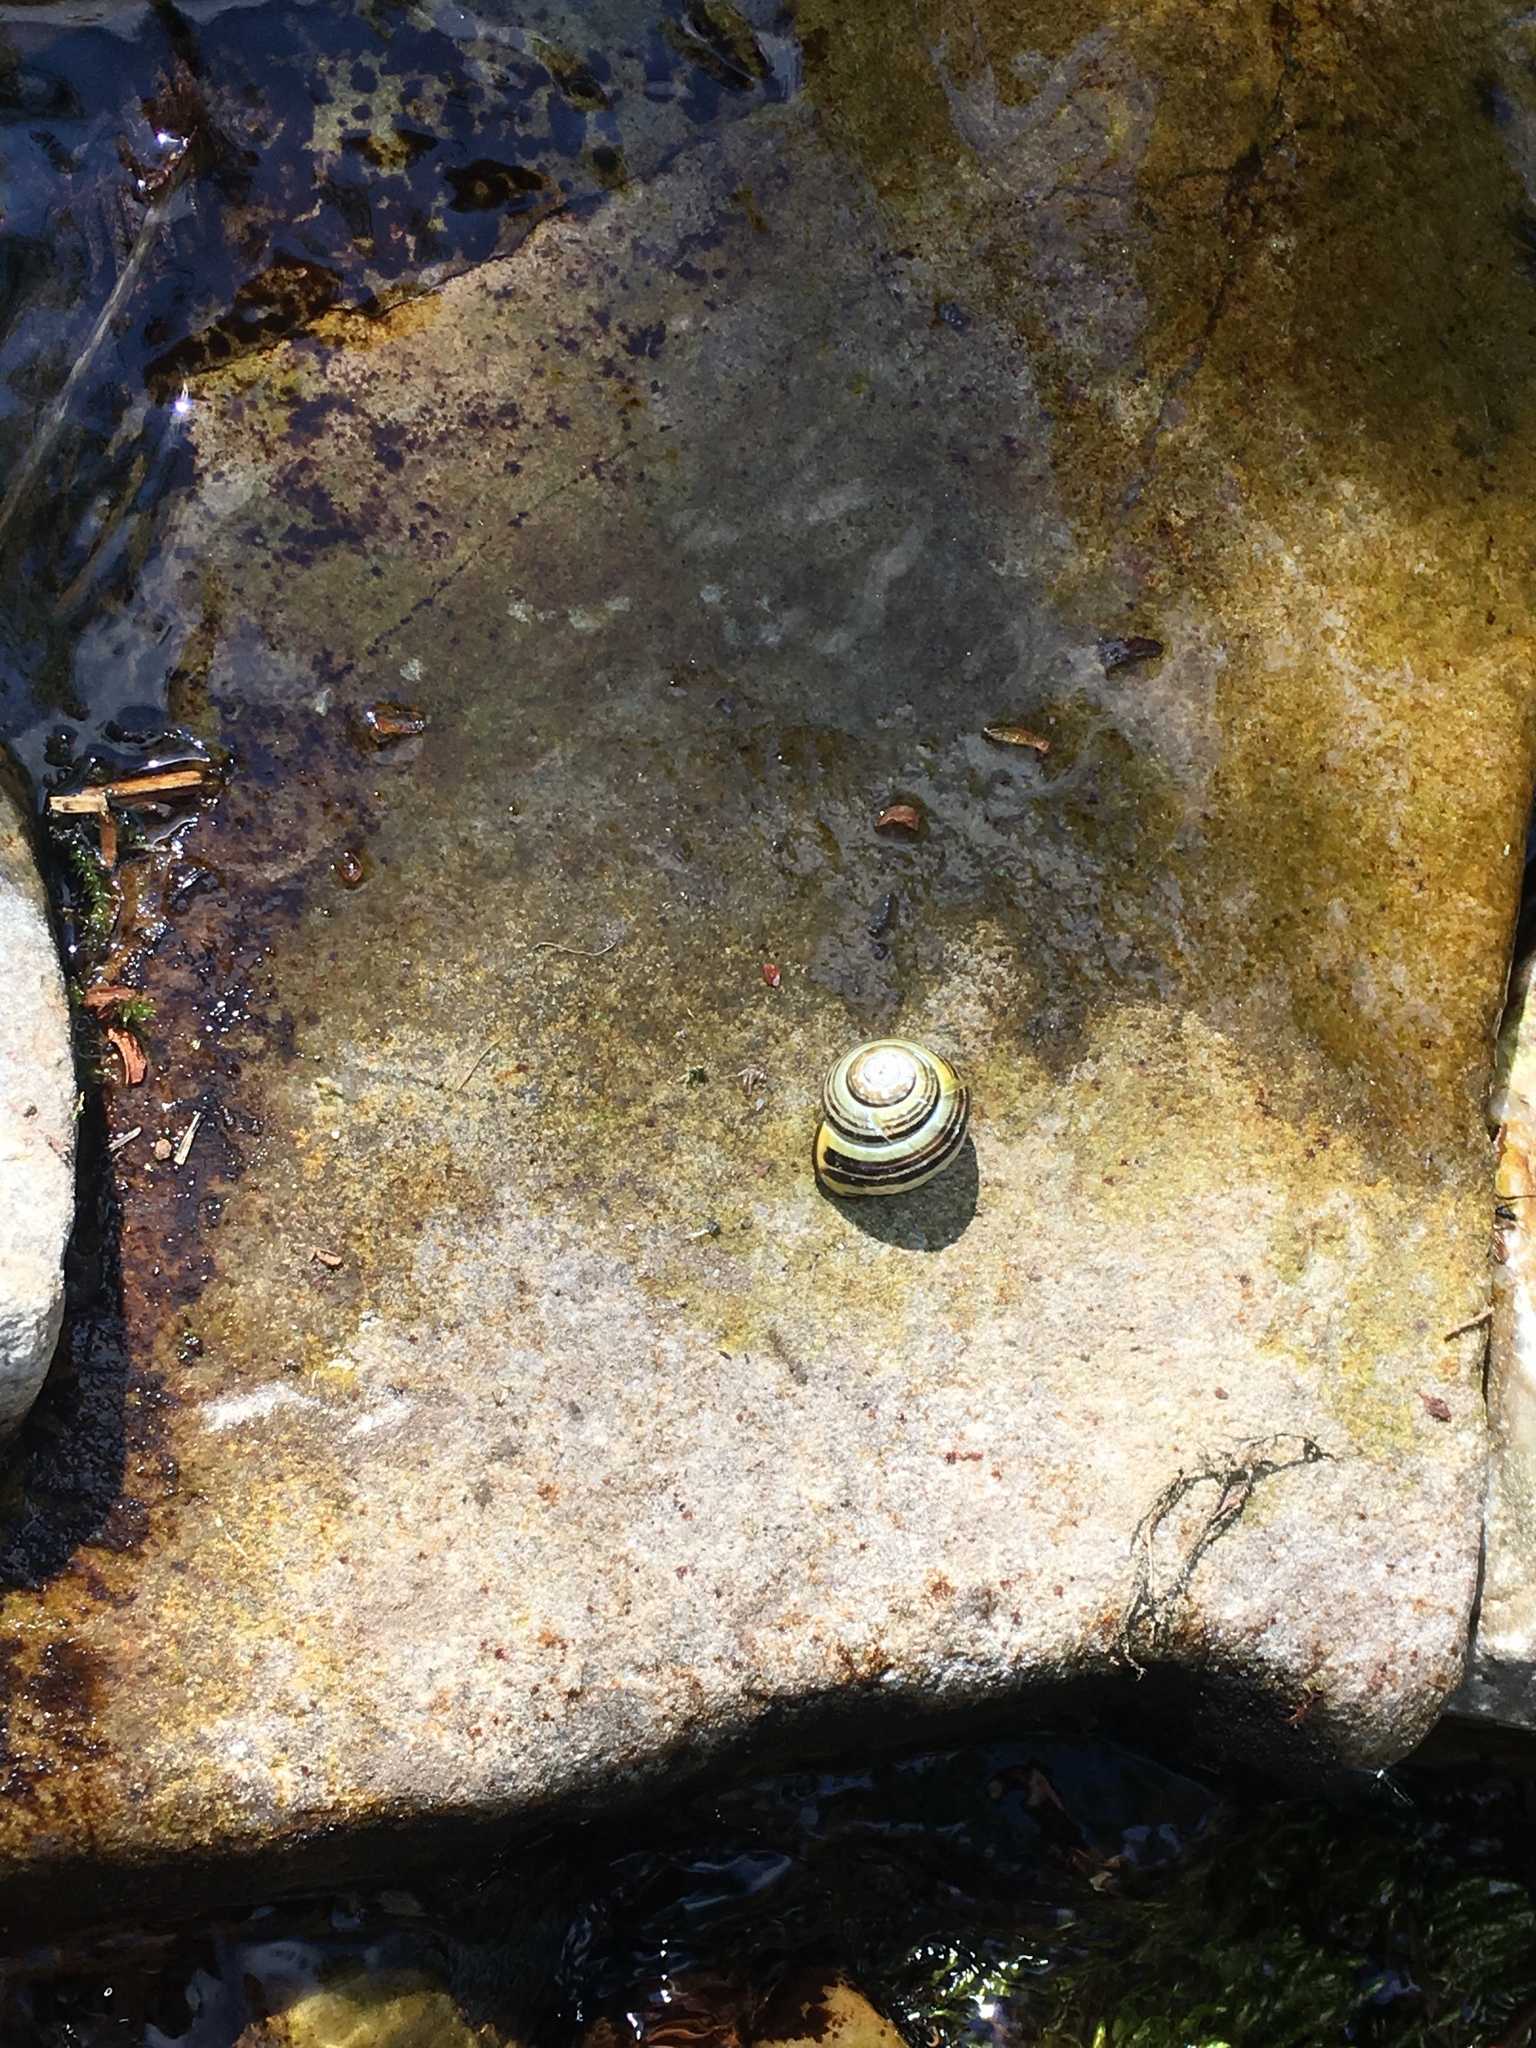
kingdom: Animalia
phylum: Mollusca
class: Gastropoda
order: Stylommatophora
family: Helicidae
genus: Cepaea
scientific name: Cepaea nemoralis
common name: Grovesnail
